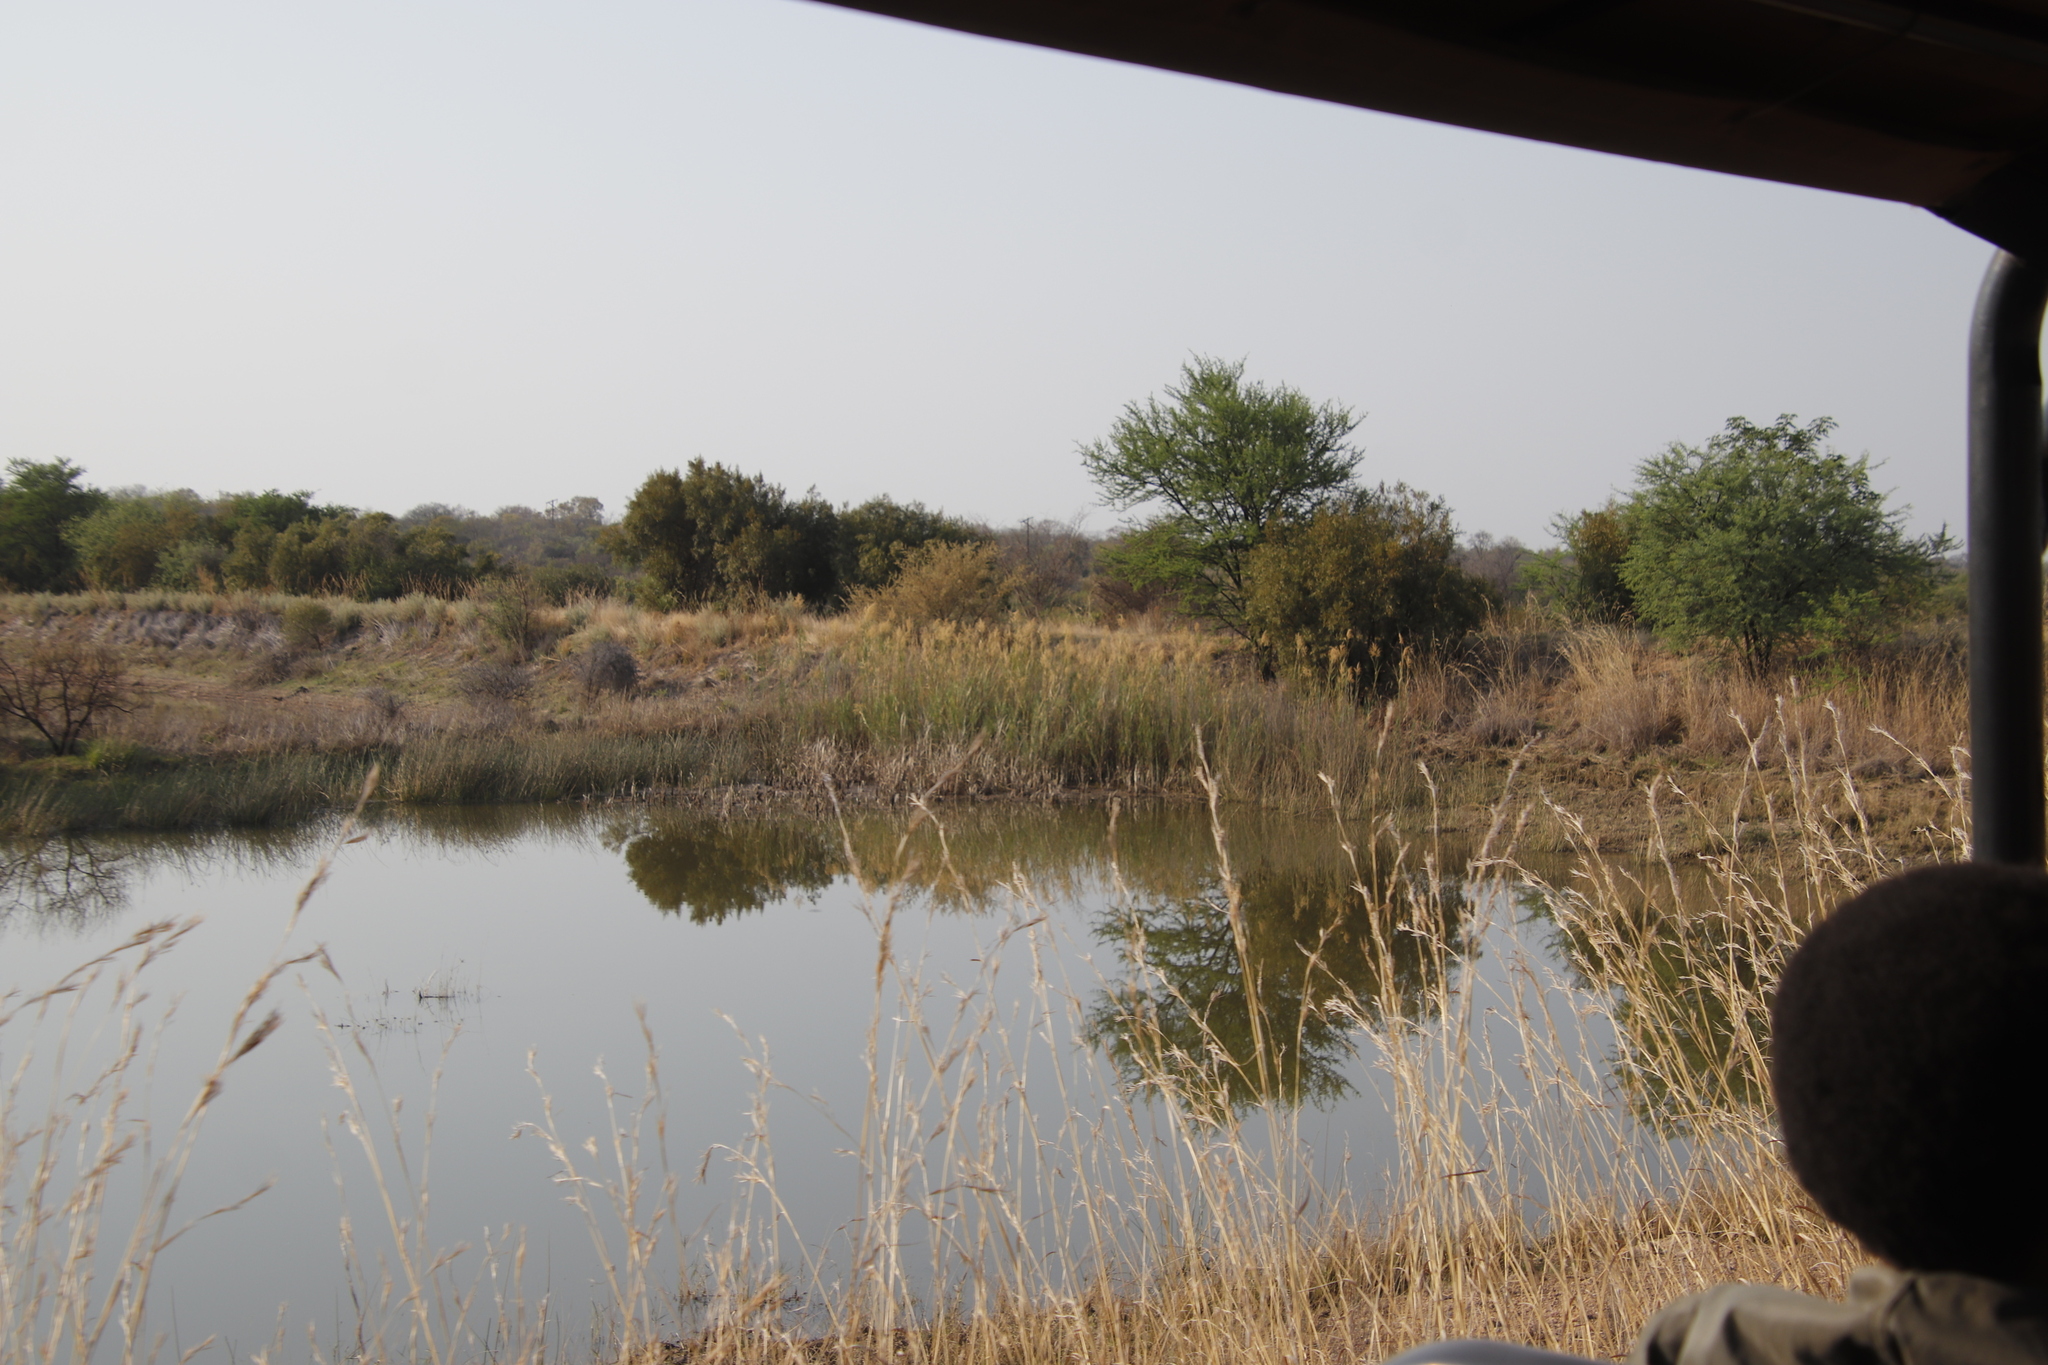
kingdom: Plantae
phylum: Tracheophyta
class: Liliopsida
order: Poales
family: Poaceae
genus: Phragmites
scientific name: Phragmites australis
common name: Common reed
